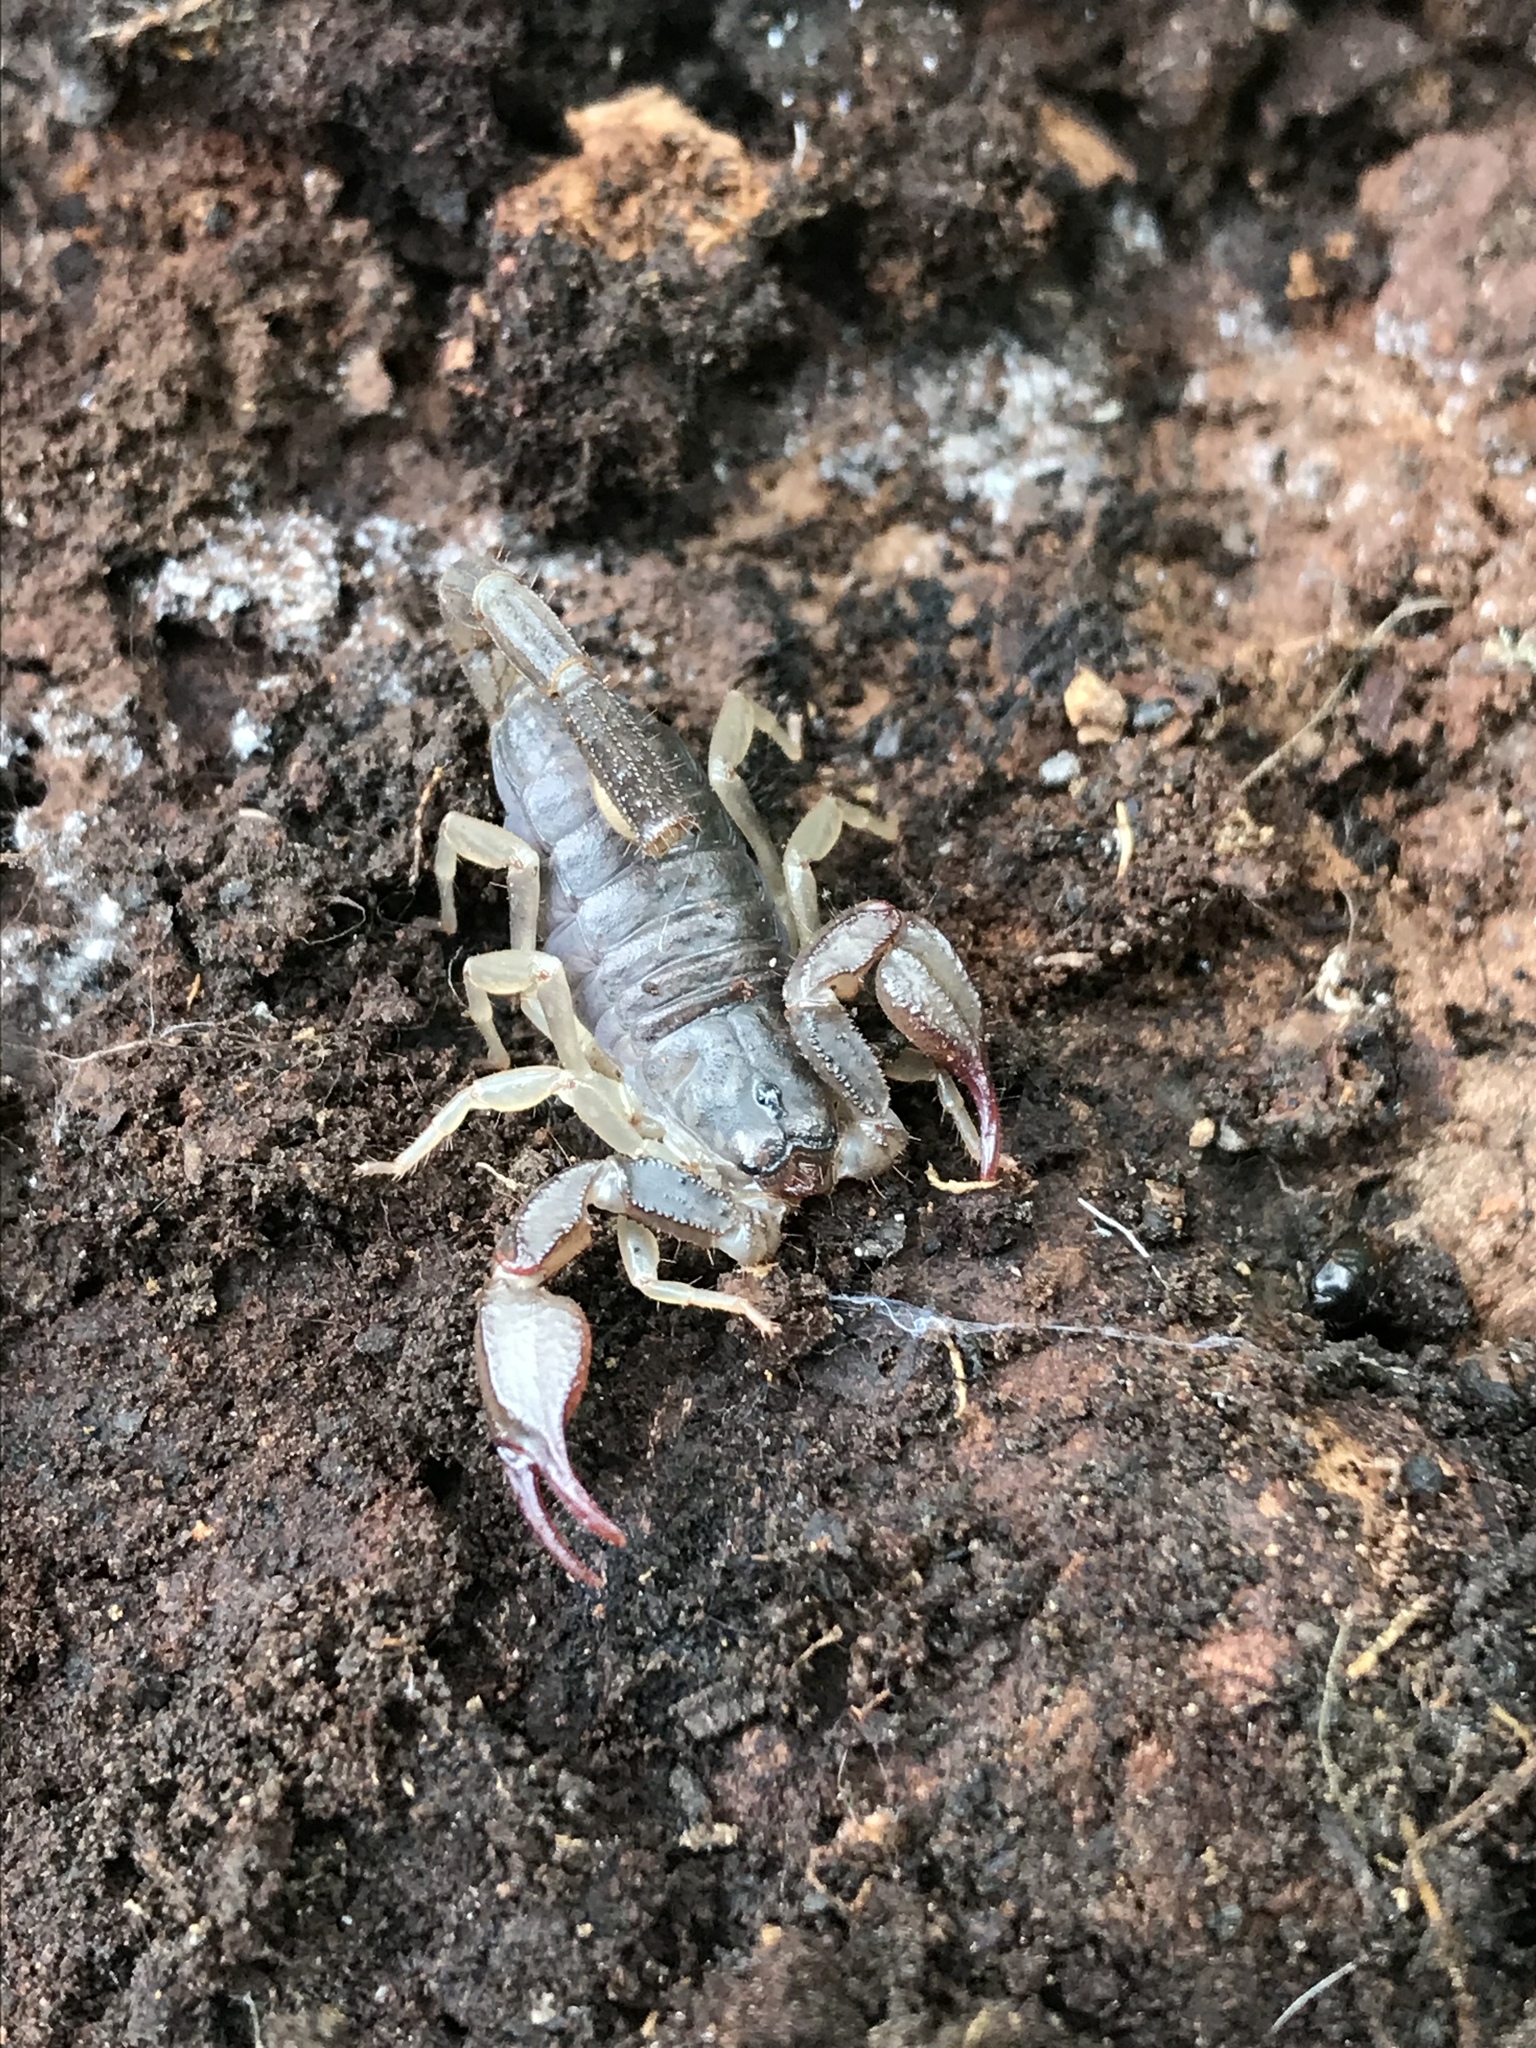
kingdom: Animalia
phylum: Arthropoda
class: Arachnida
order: Scorpiones
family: Chactidae
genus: Uroctonus
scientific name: Uroctonus mordax
